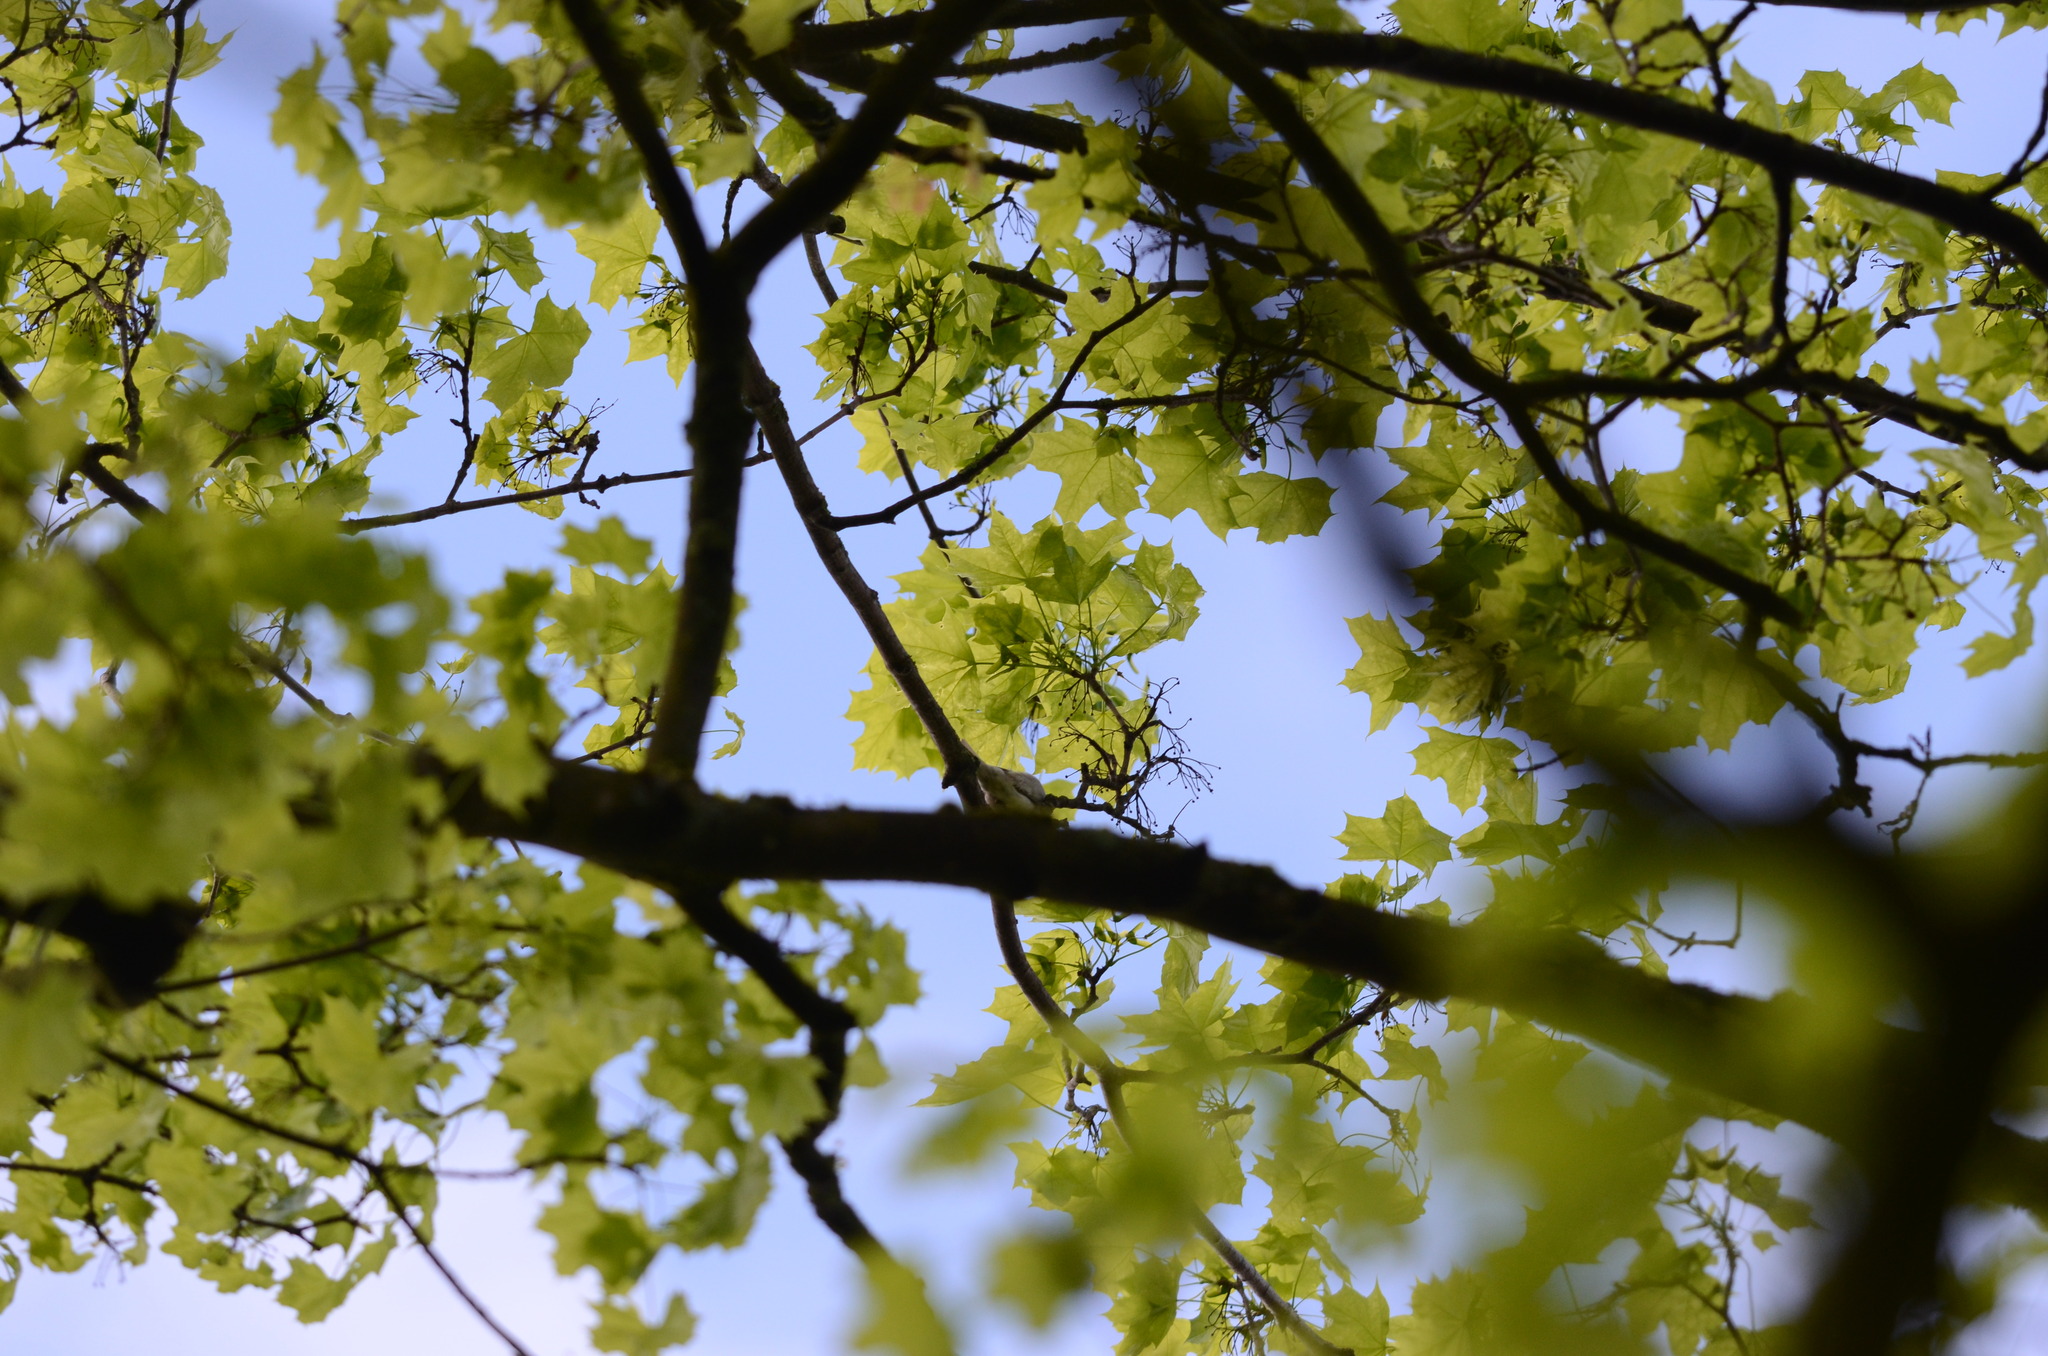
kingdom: Animalia
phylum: Chordata
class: Aves
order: Passeriformes
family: Phylloscopidae
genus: Phylloscopus
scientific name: Phylloscopus sibillatrix
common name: Wood warbler
